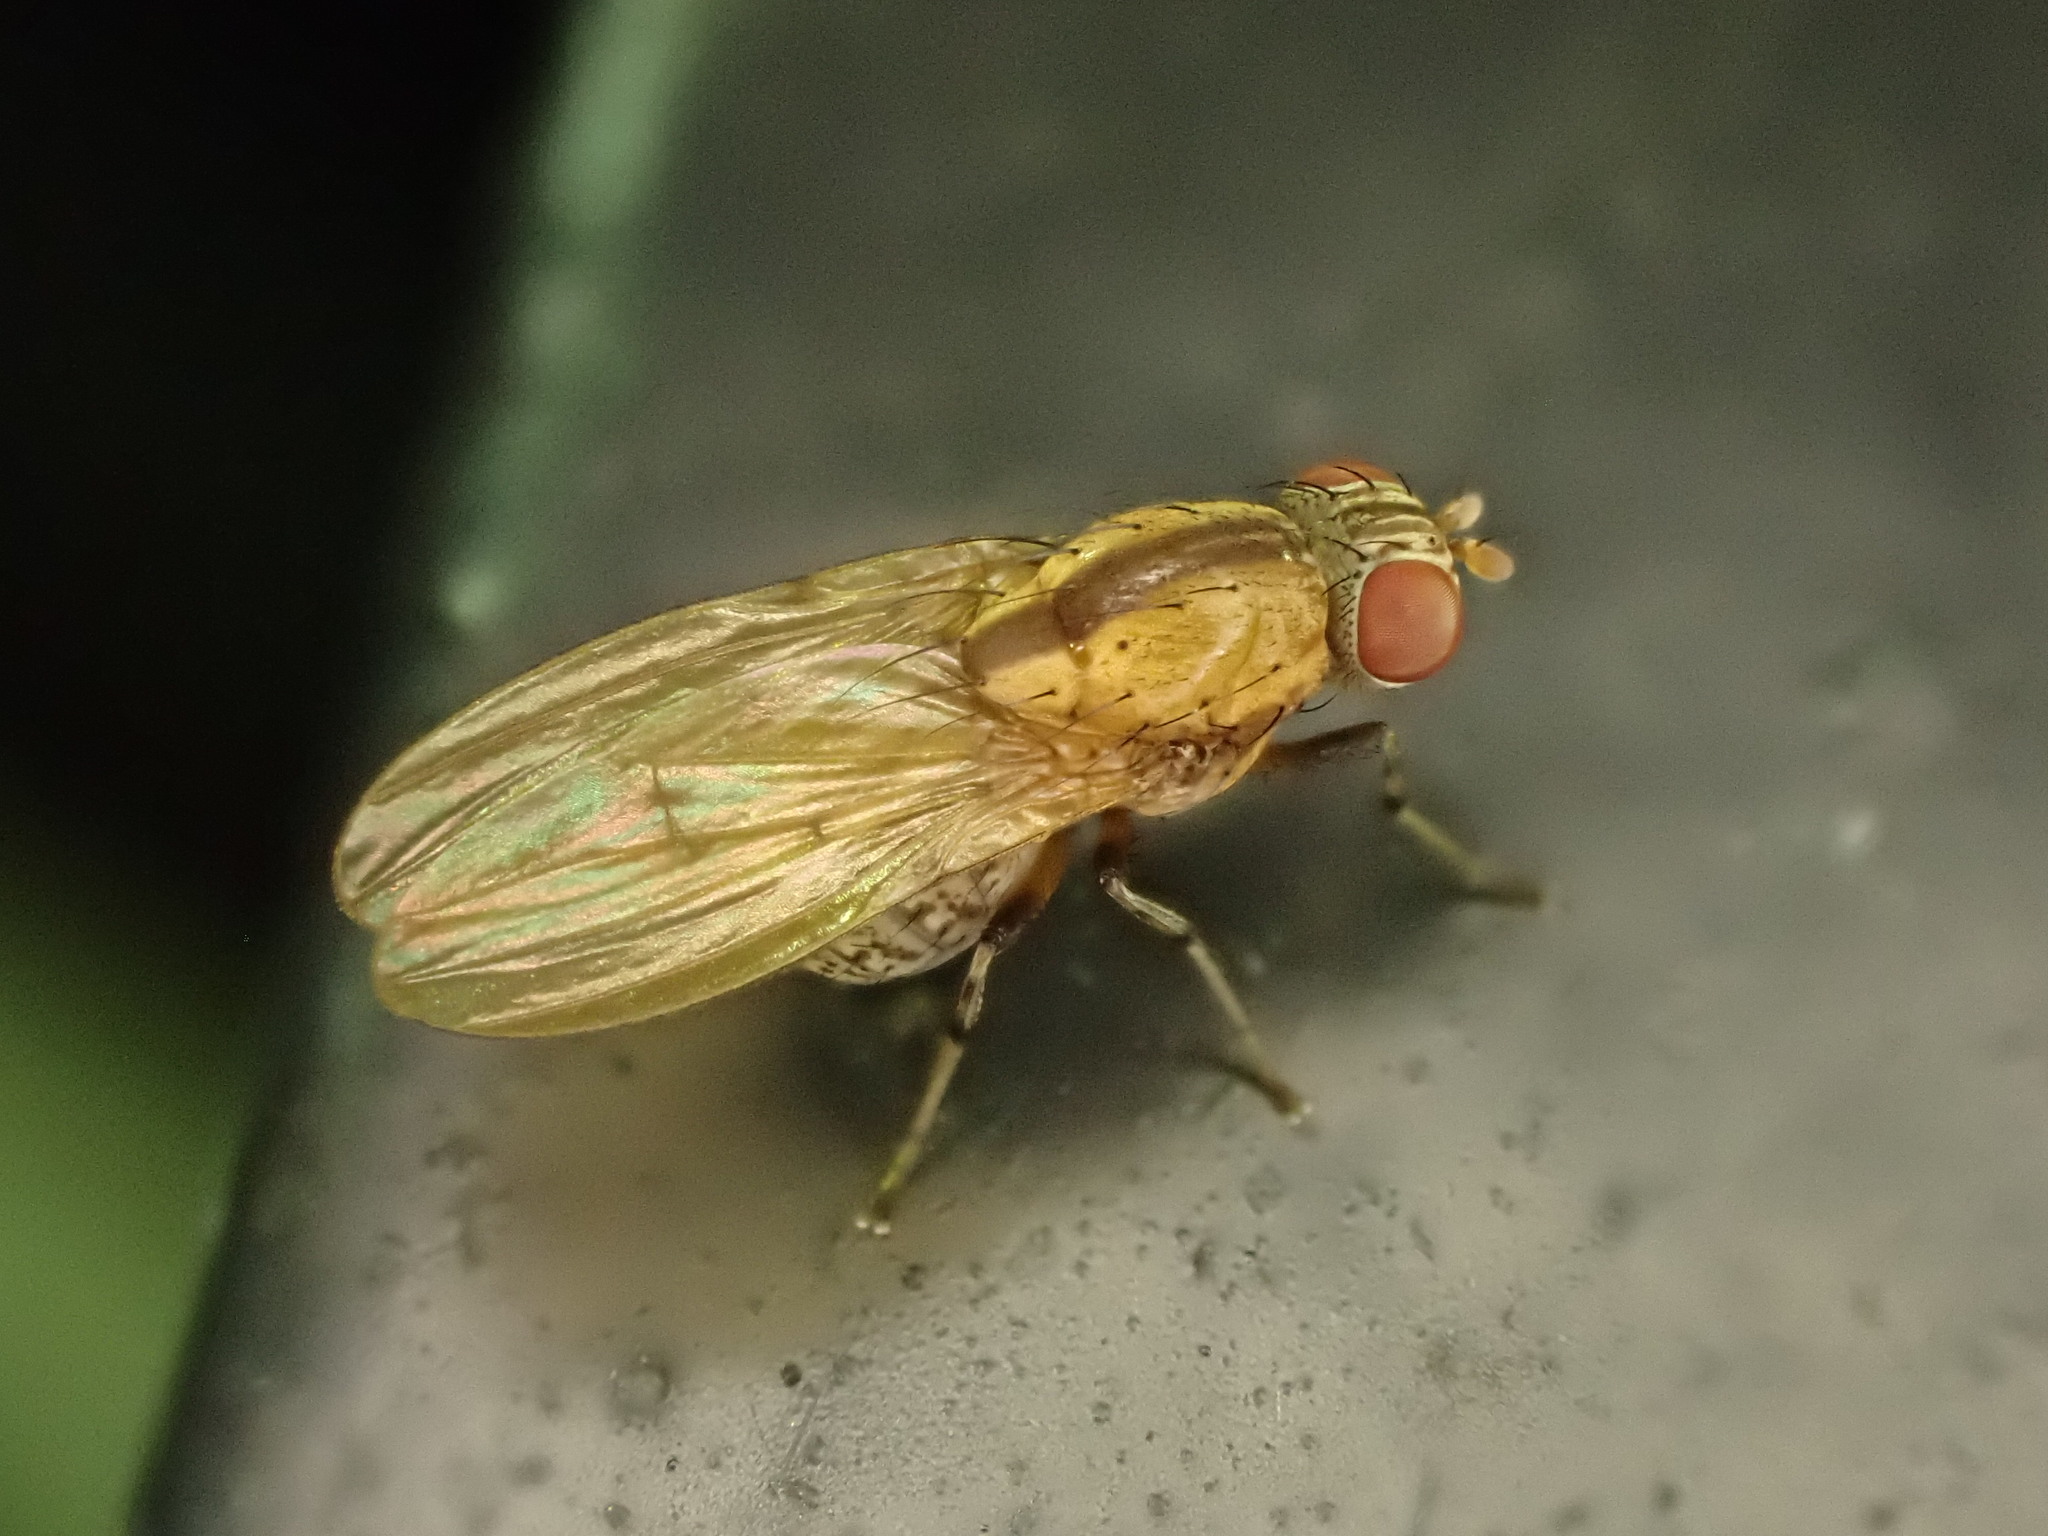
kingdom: Animalia
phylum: Arthropoda
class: Insecta
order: Diptera
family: Lauxaniidae
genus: Sapromyza
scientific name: Sapromyza neozelandica
